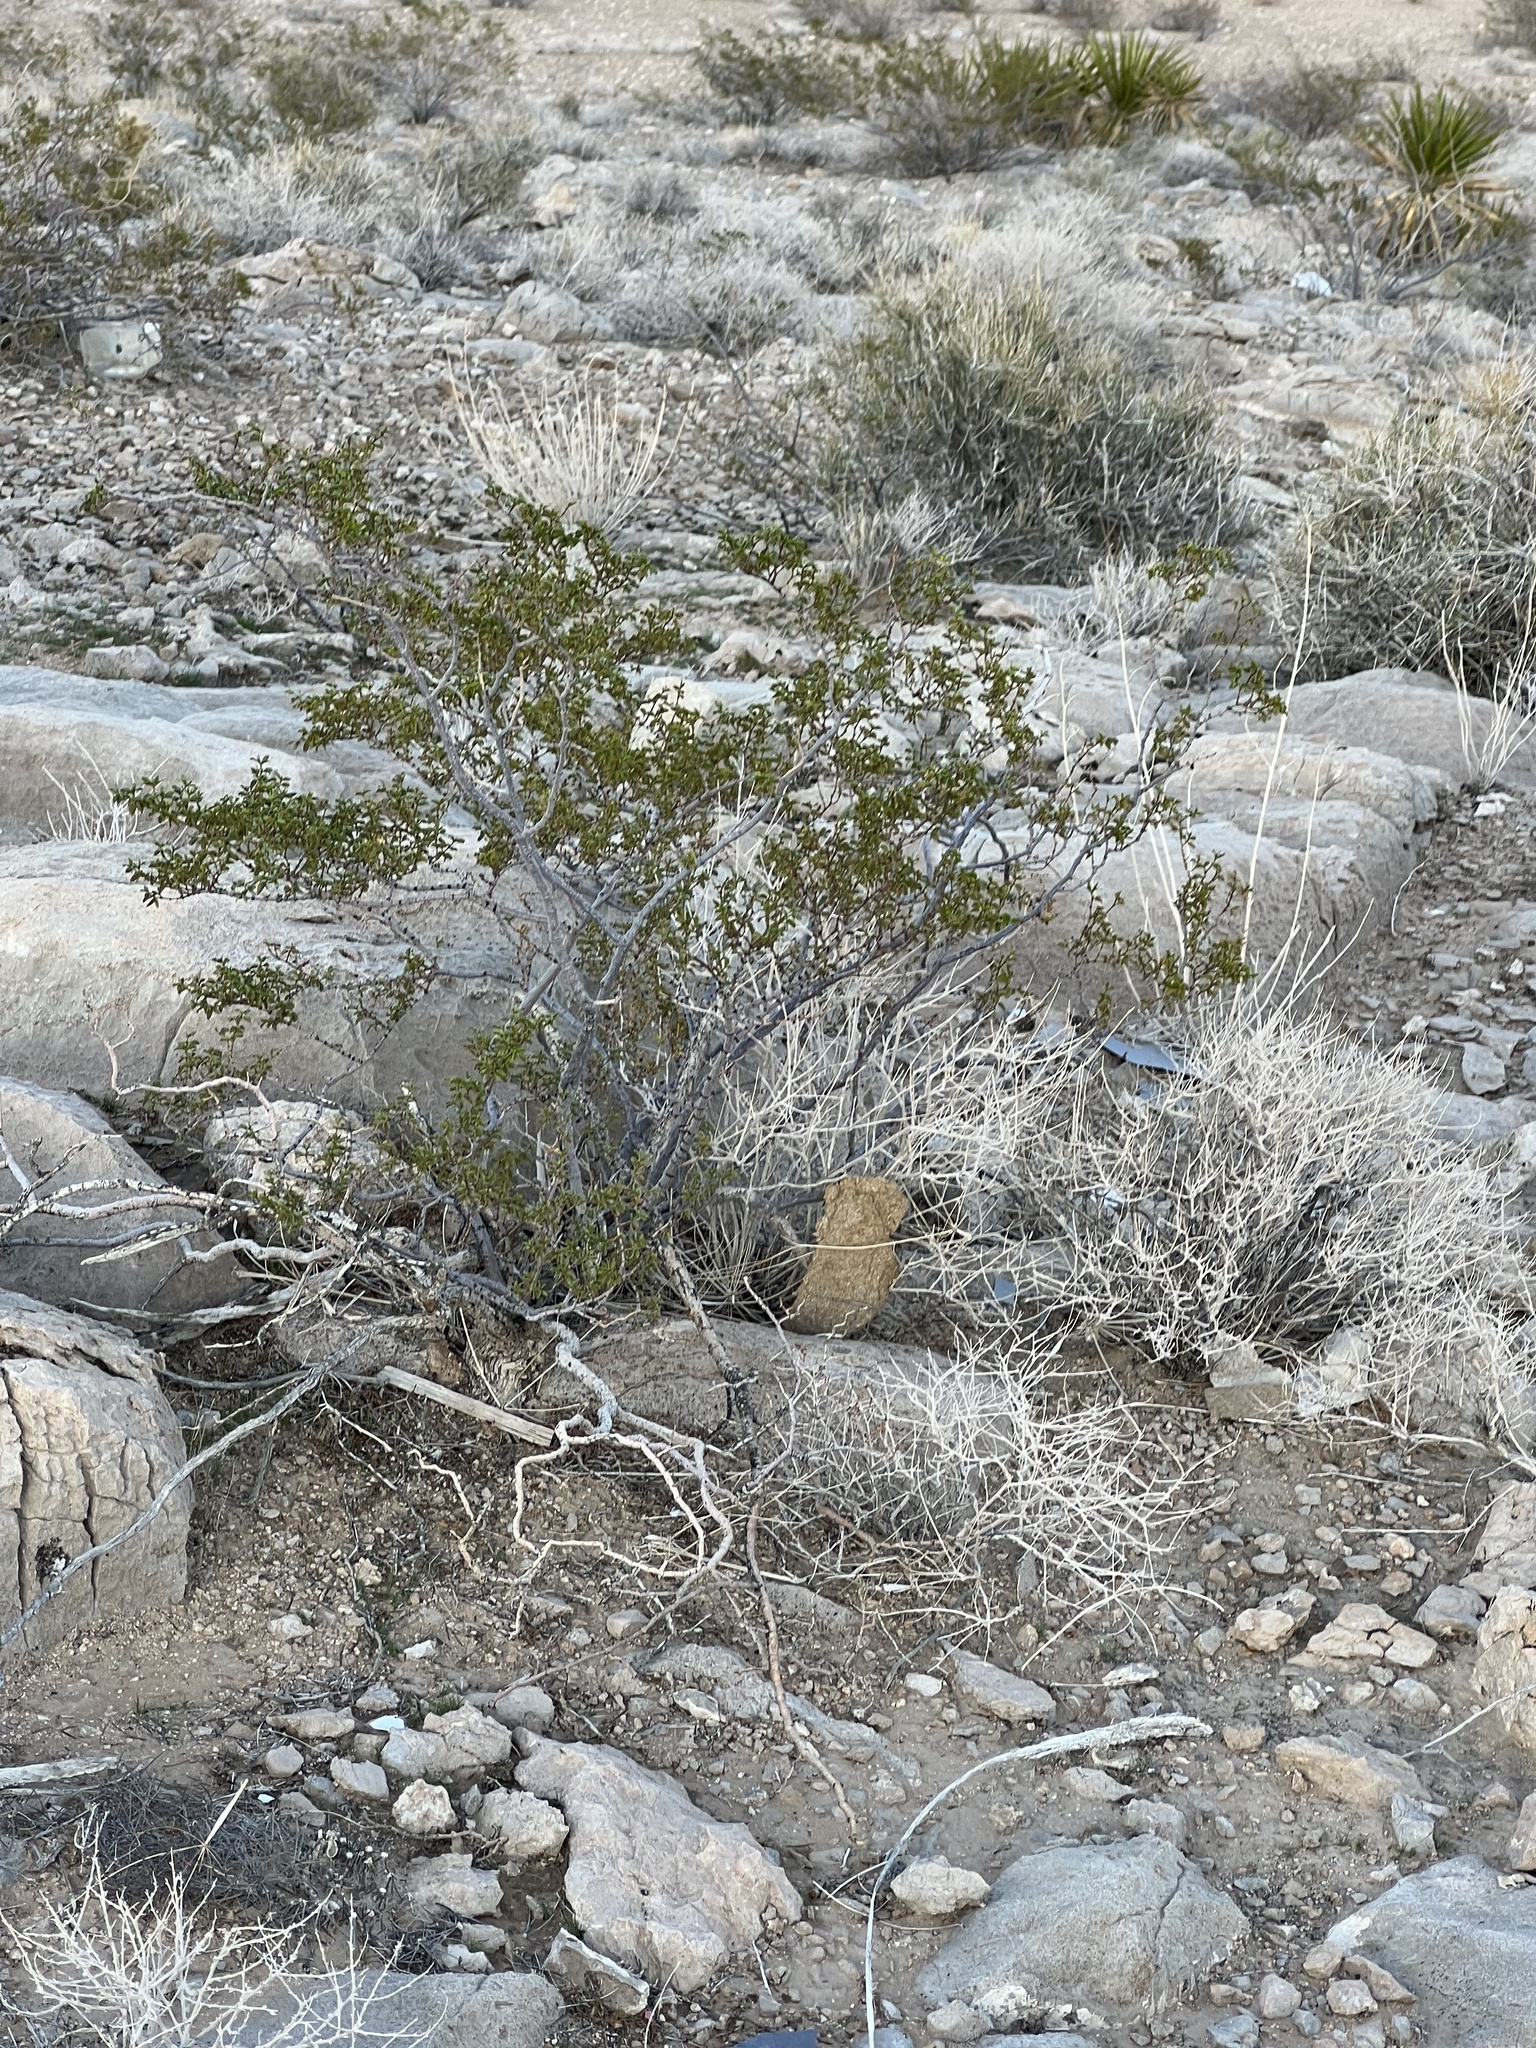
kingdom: Plantae
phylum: Tracheophyta
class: Magnoliopsida
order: Zygophyllales
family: Zygophyllaceae
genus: Larrea
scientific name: Larrea tridentata
